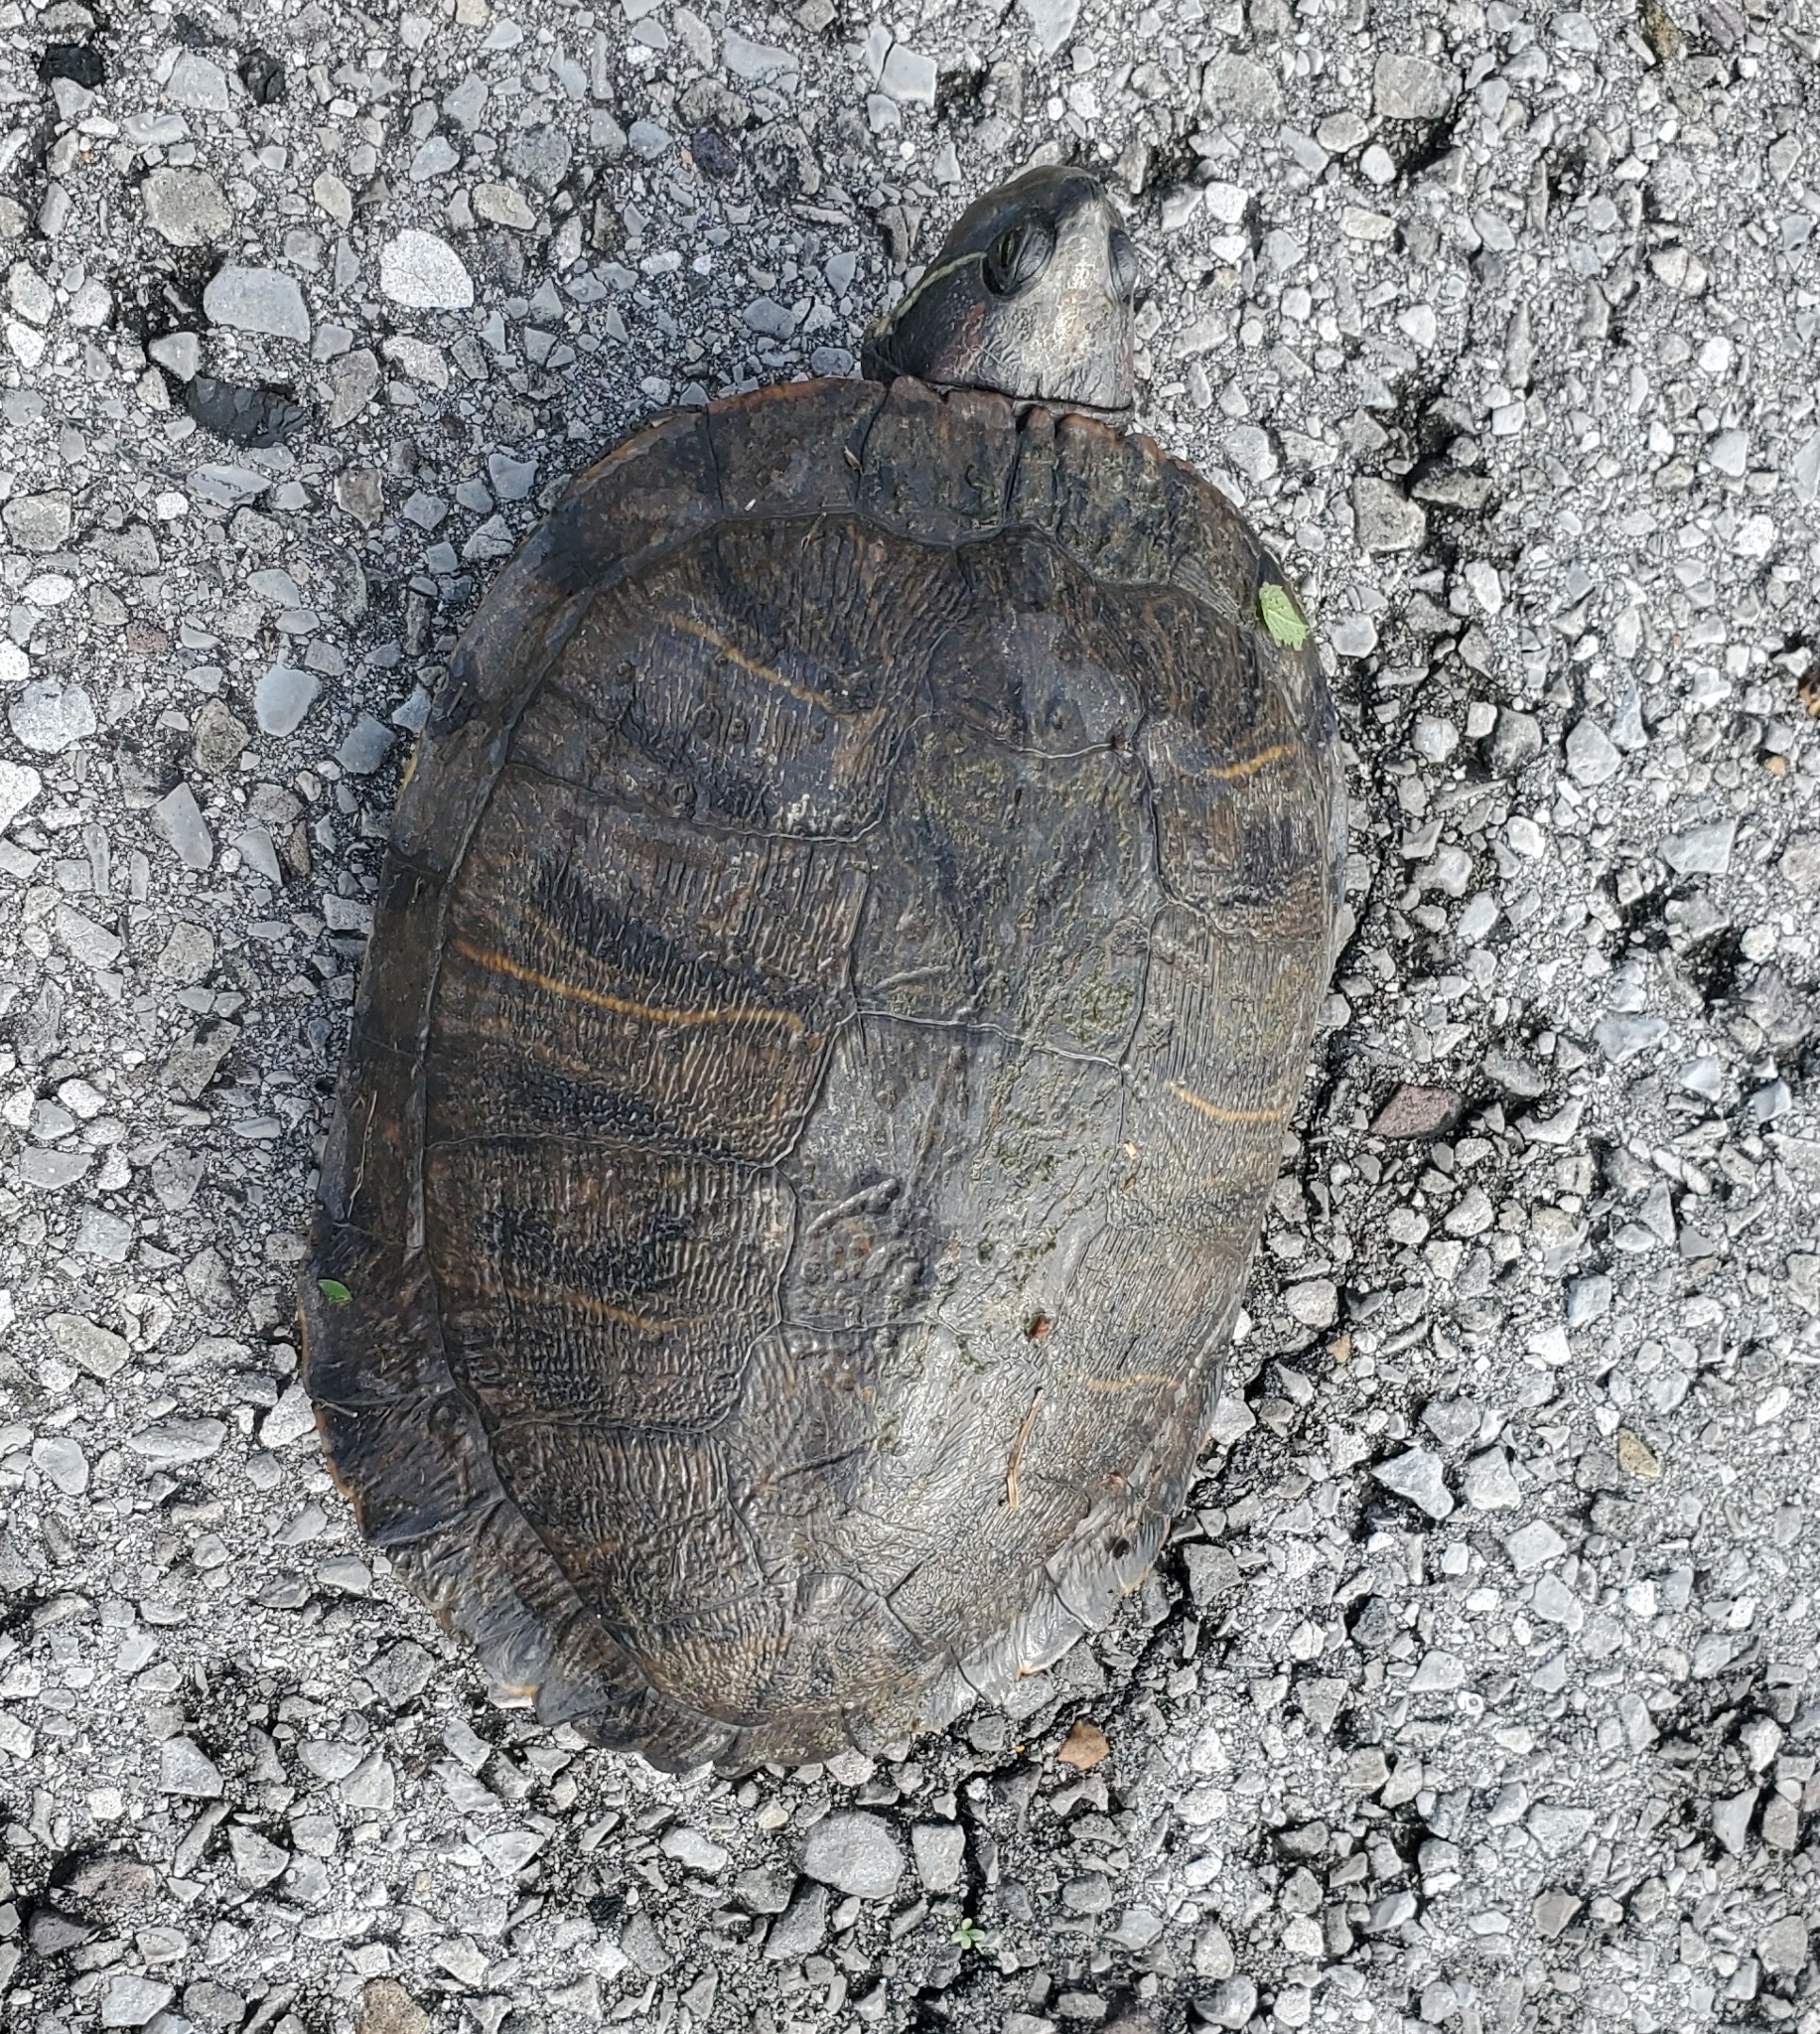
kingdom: Animalia
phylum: Chordata
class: Testudines
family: Emydidae
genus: Trachemys
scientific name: Trachemys scripta
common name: Slider
